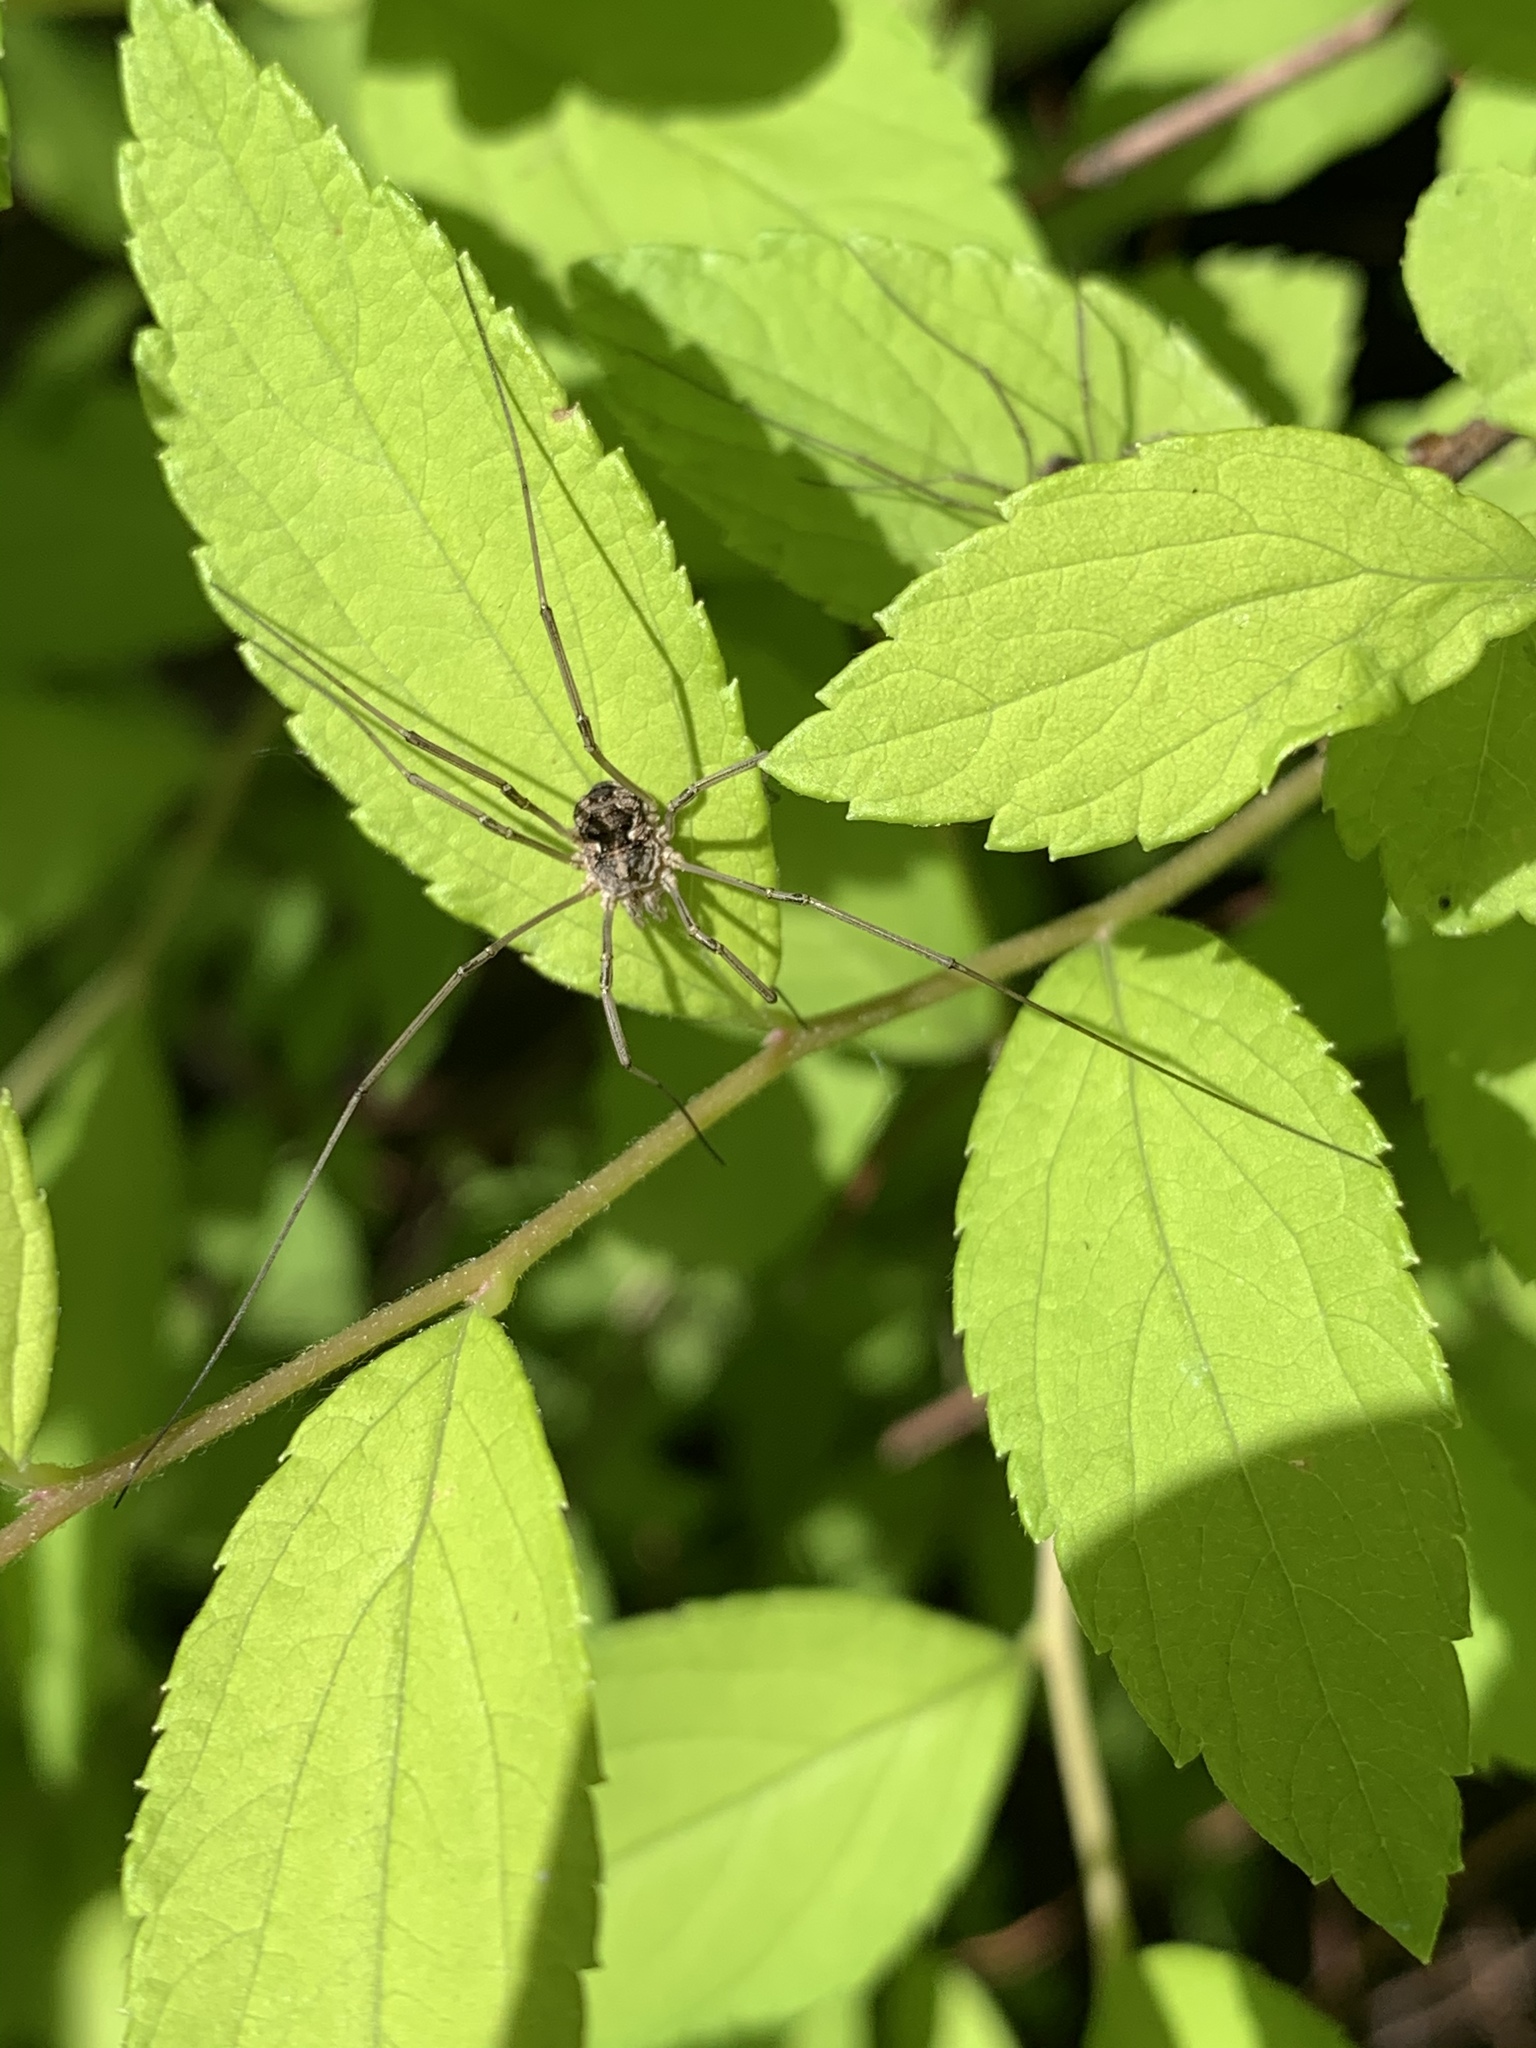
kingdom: Animalia
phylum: Arthropoda
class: Arachnida
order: Opiliones
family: Phalangiidae
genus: Phalangium
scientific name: Phalangium opilio
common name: Daddy longleg
